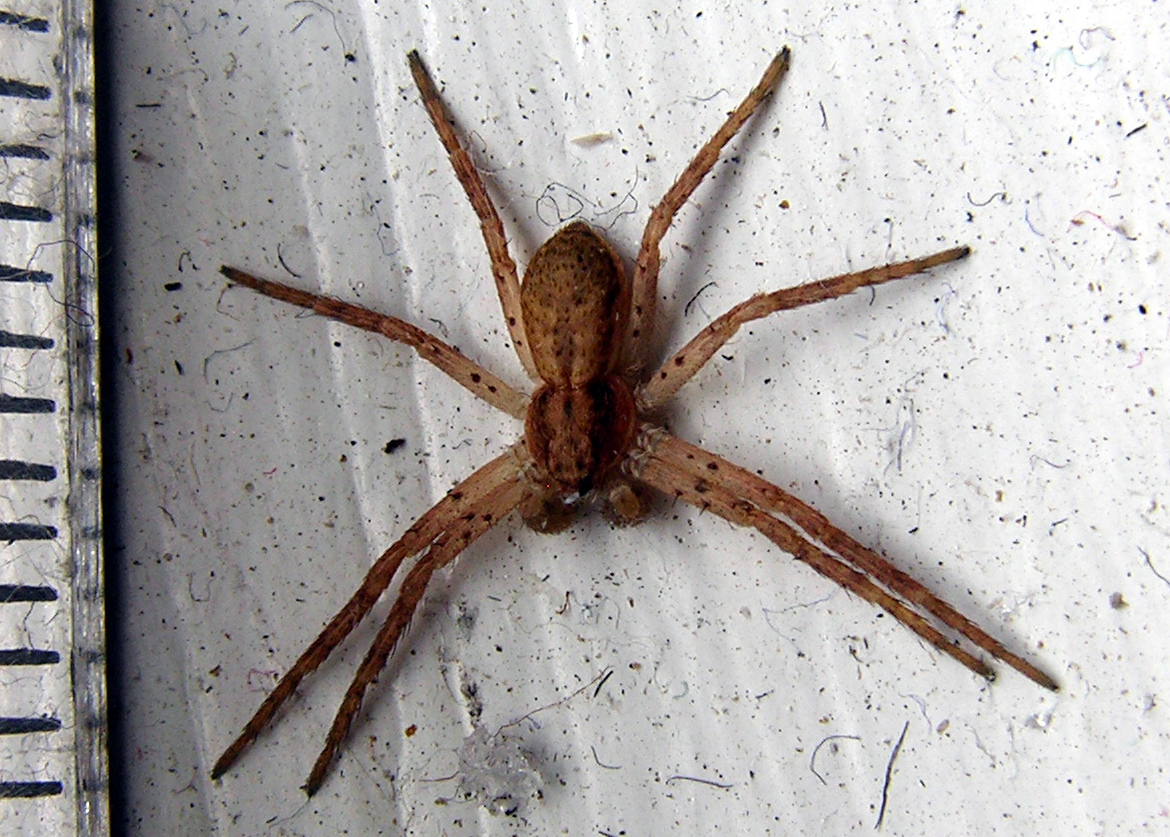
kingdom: Animalia
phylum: Arthropoda
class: Arachnida
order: Araneae
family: Philodromidae
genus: Philodromus
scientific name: Philodromus dispar
